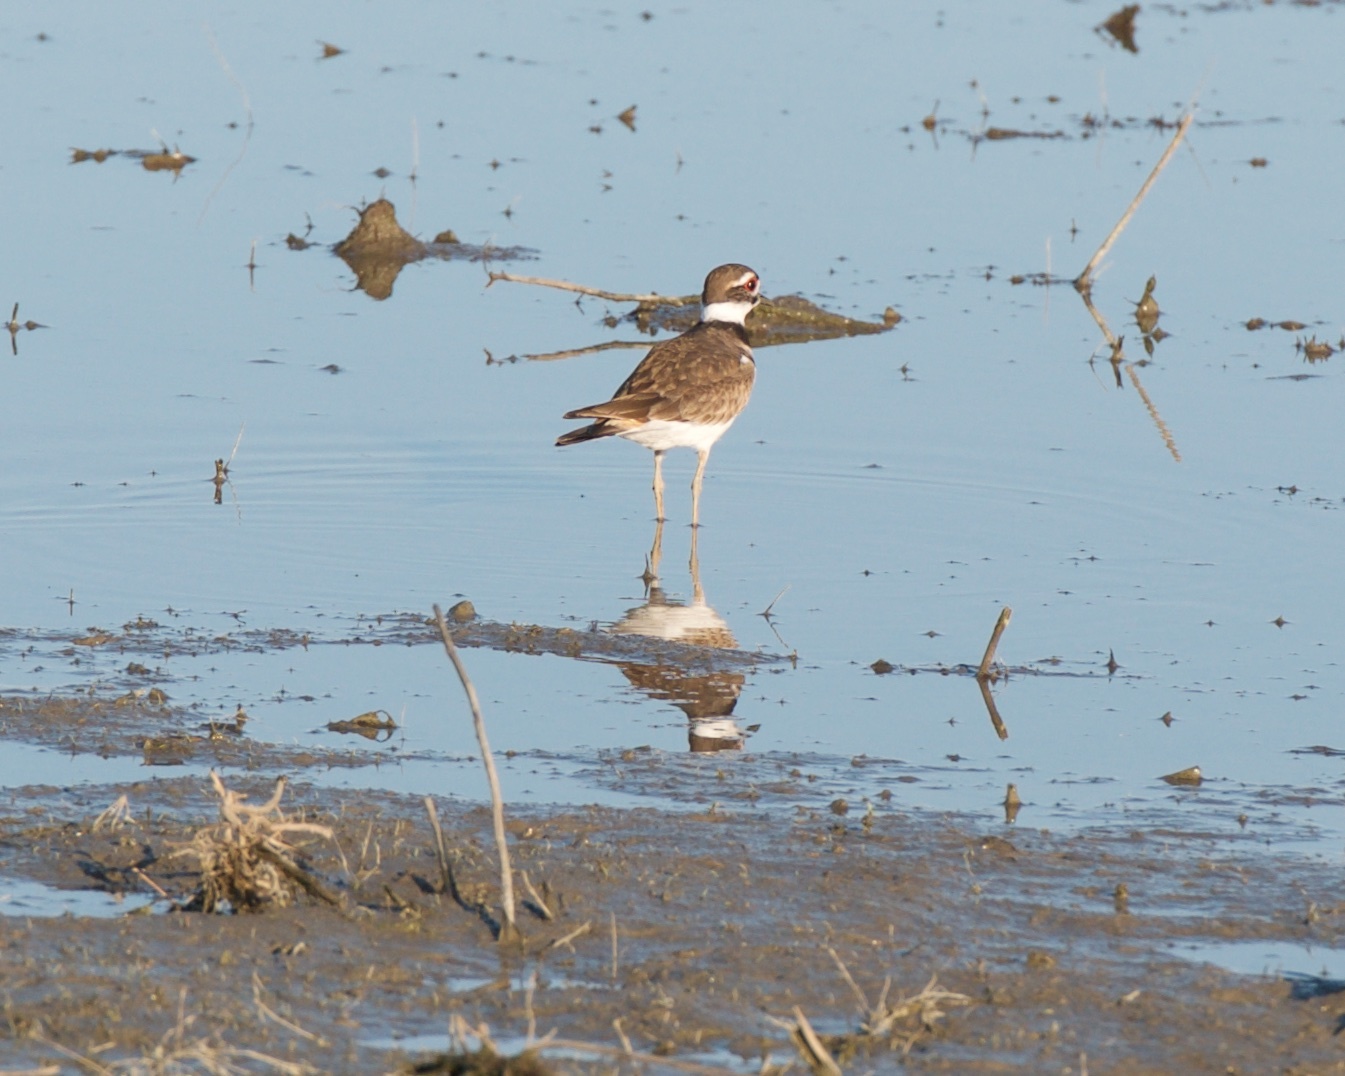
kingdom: Animalia
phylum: Chordata
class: Aves
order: Charadriiformes
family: Charadriidae
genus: Charadrius
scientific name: Charadrius vociferus
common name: Killdeer
